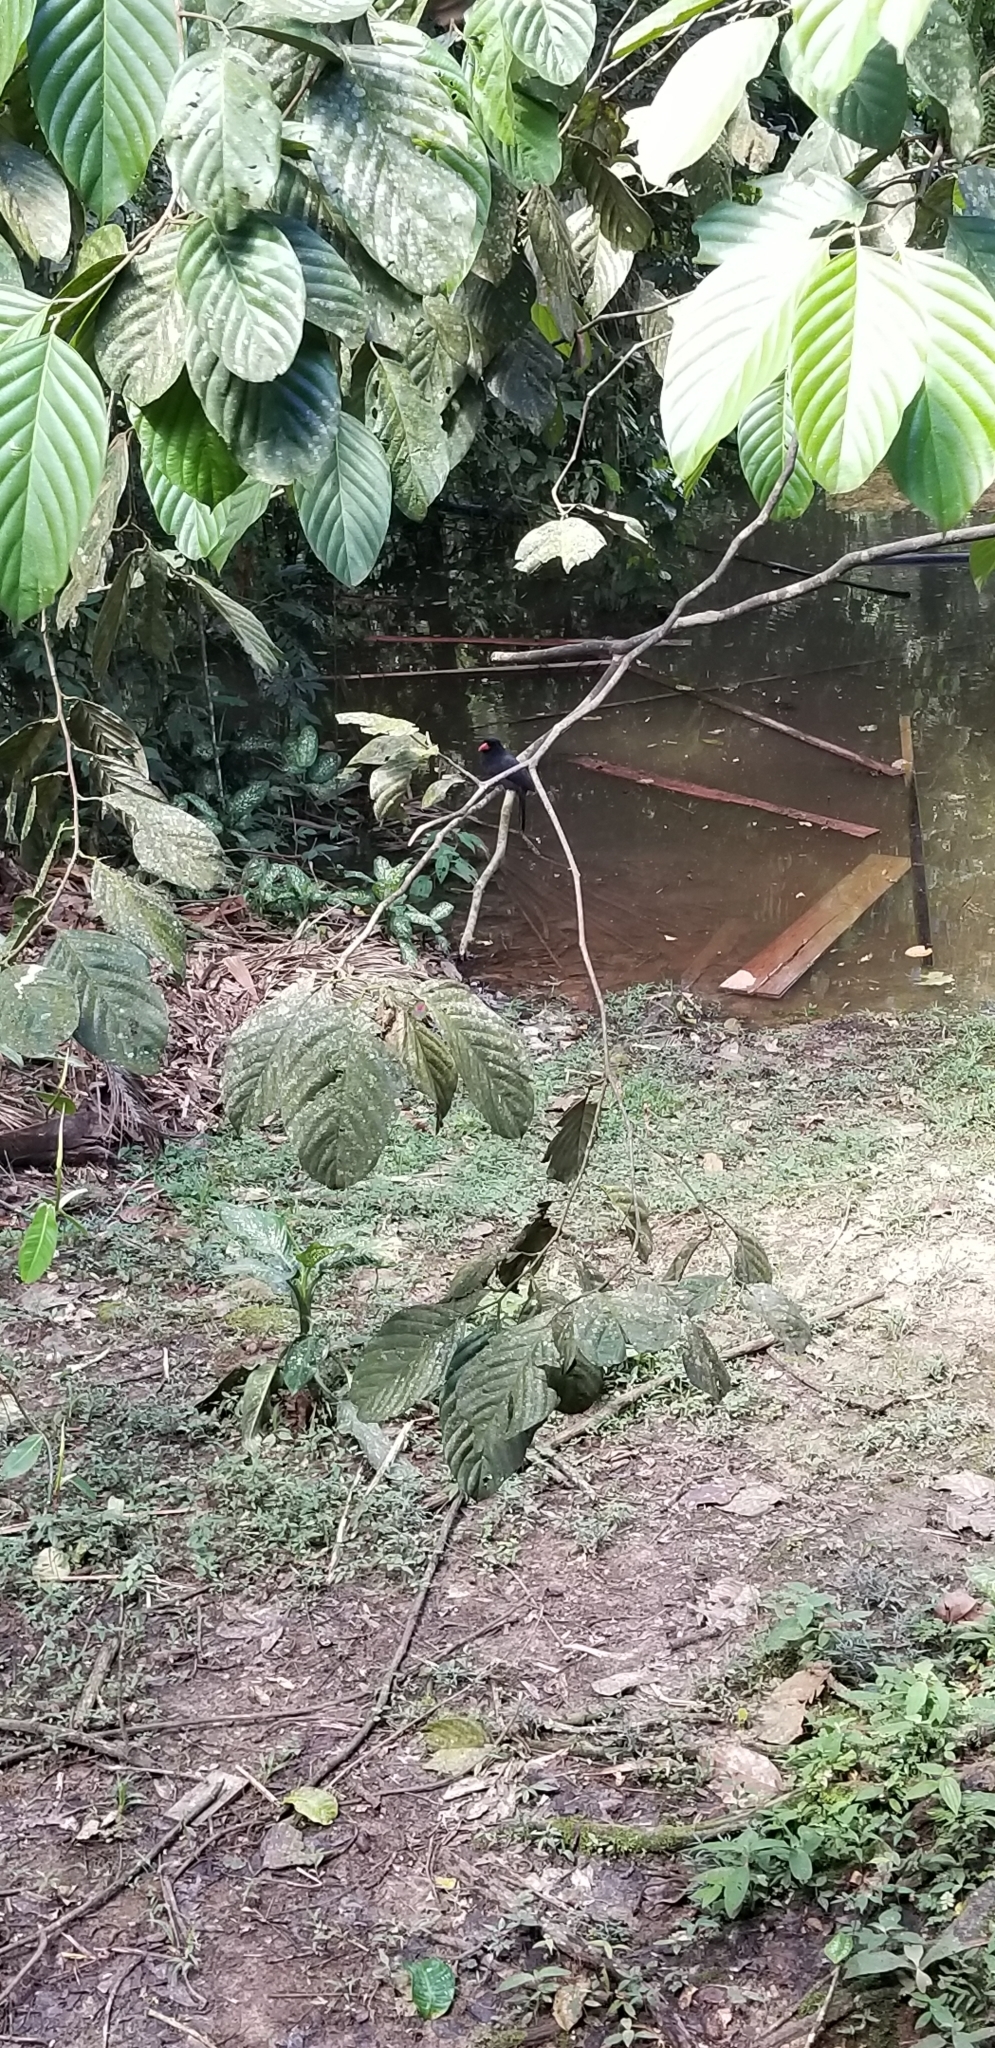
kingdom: Animalia
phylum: Chordata
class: Aves
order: Piciformes
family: Bucconidae
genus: Monasa
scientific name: Monasa nigrifrons
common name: Black-fronted nunbird
